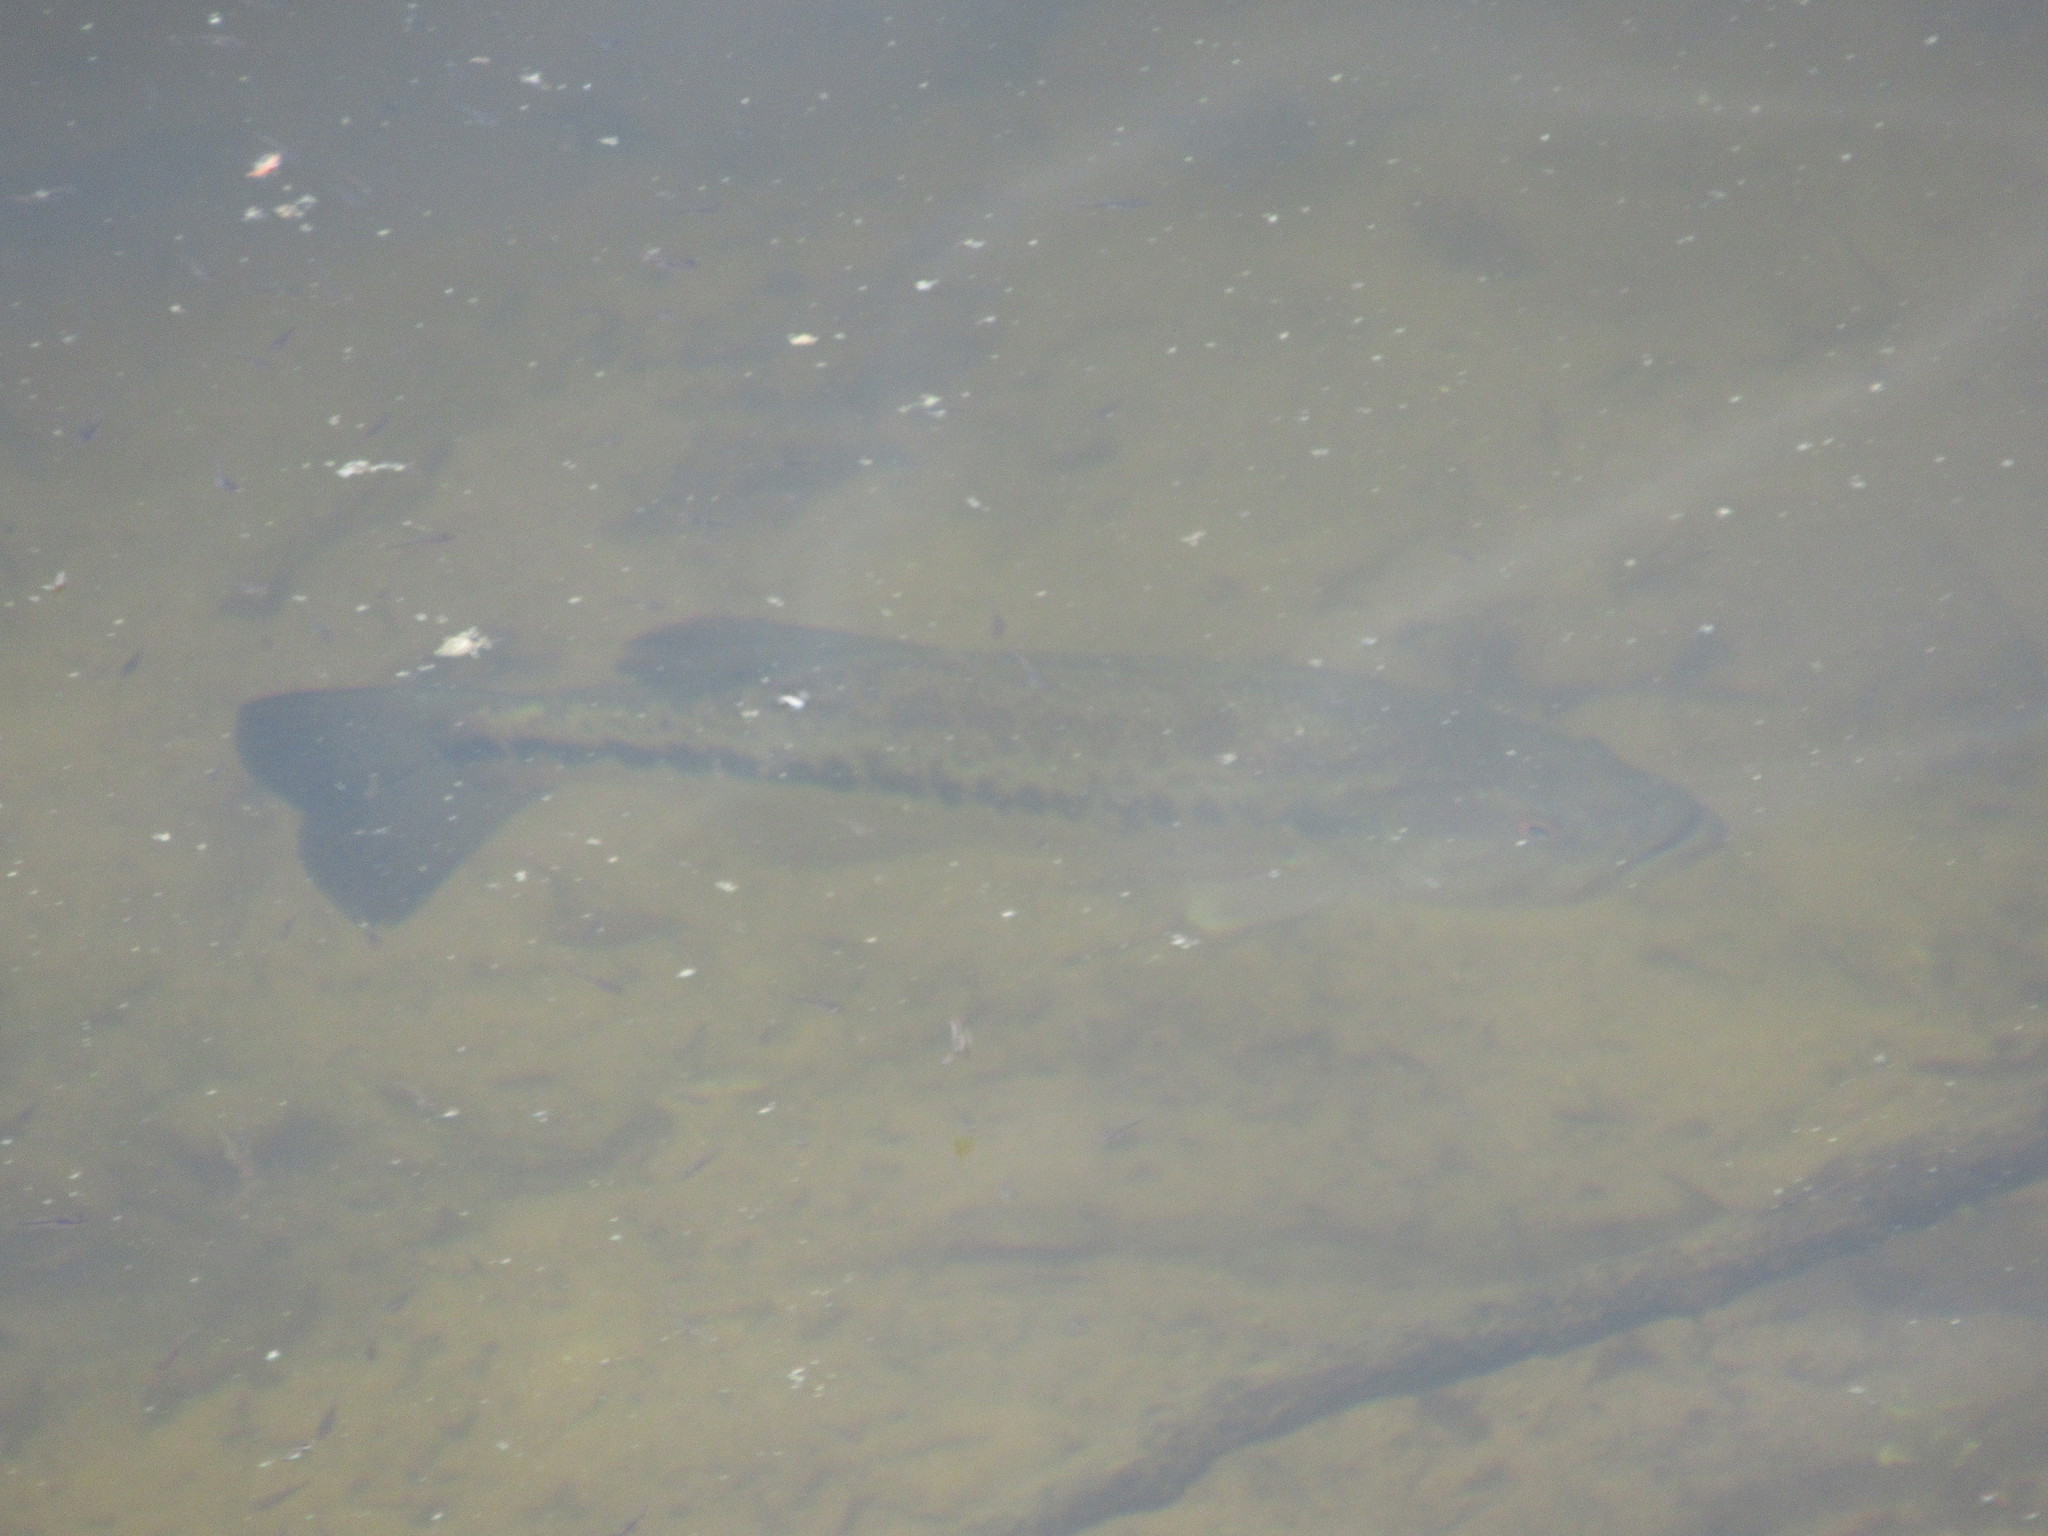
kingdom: Animalia
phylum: Chordata
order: Perciformes
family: Centrarchidae
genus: Micropterus
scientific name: Micropterus
